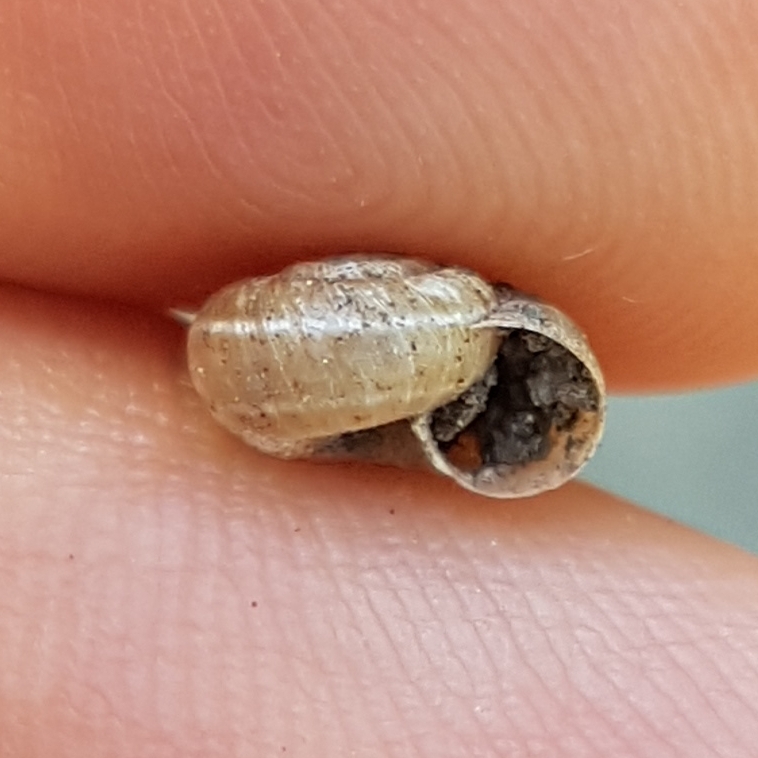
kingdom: Animalia
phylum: Mollusca
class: Gastropoda
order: Stylommatophora
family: Geomitridae
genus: Xerotricha
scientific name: Xerotricha apicina
